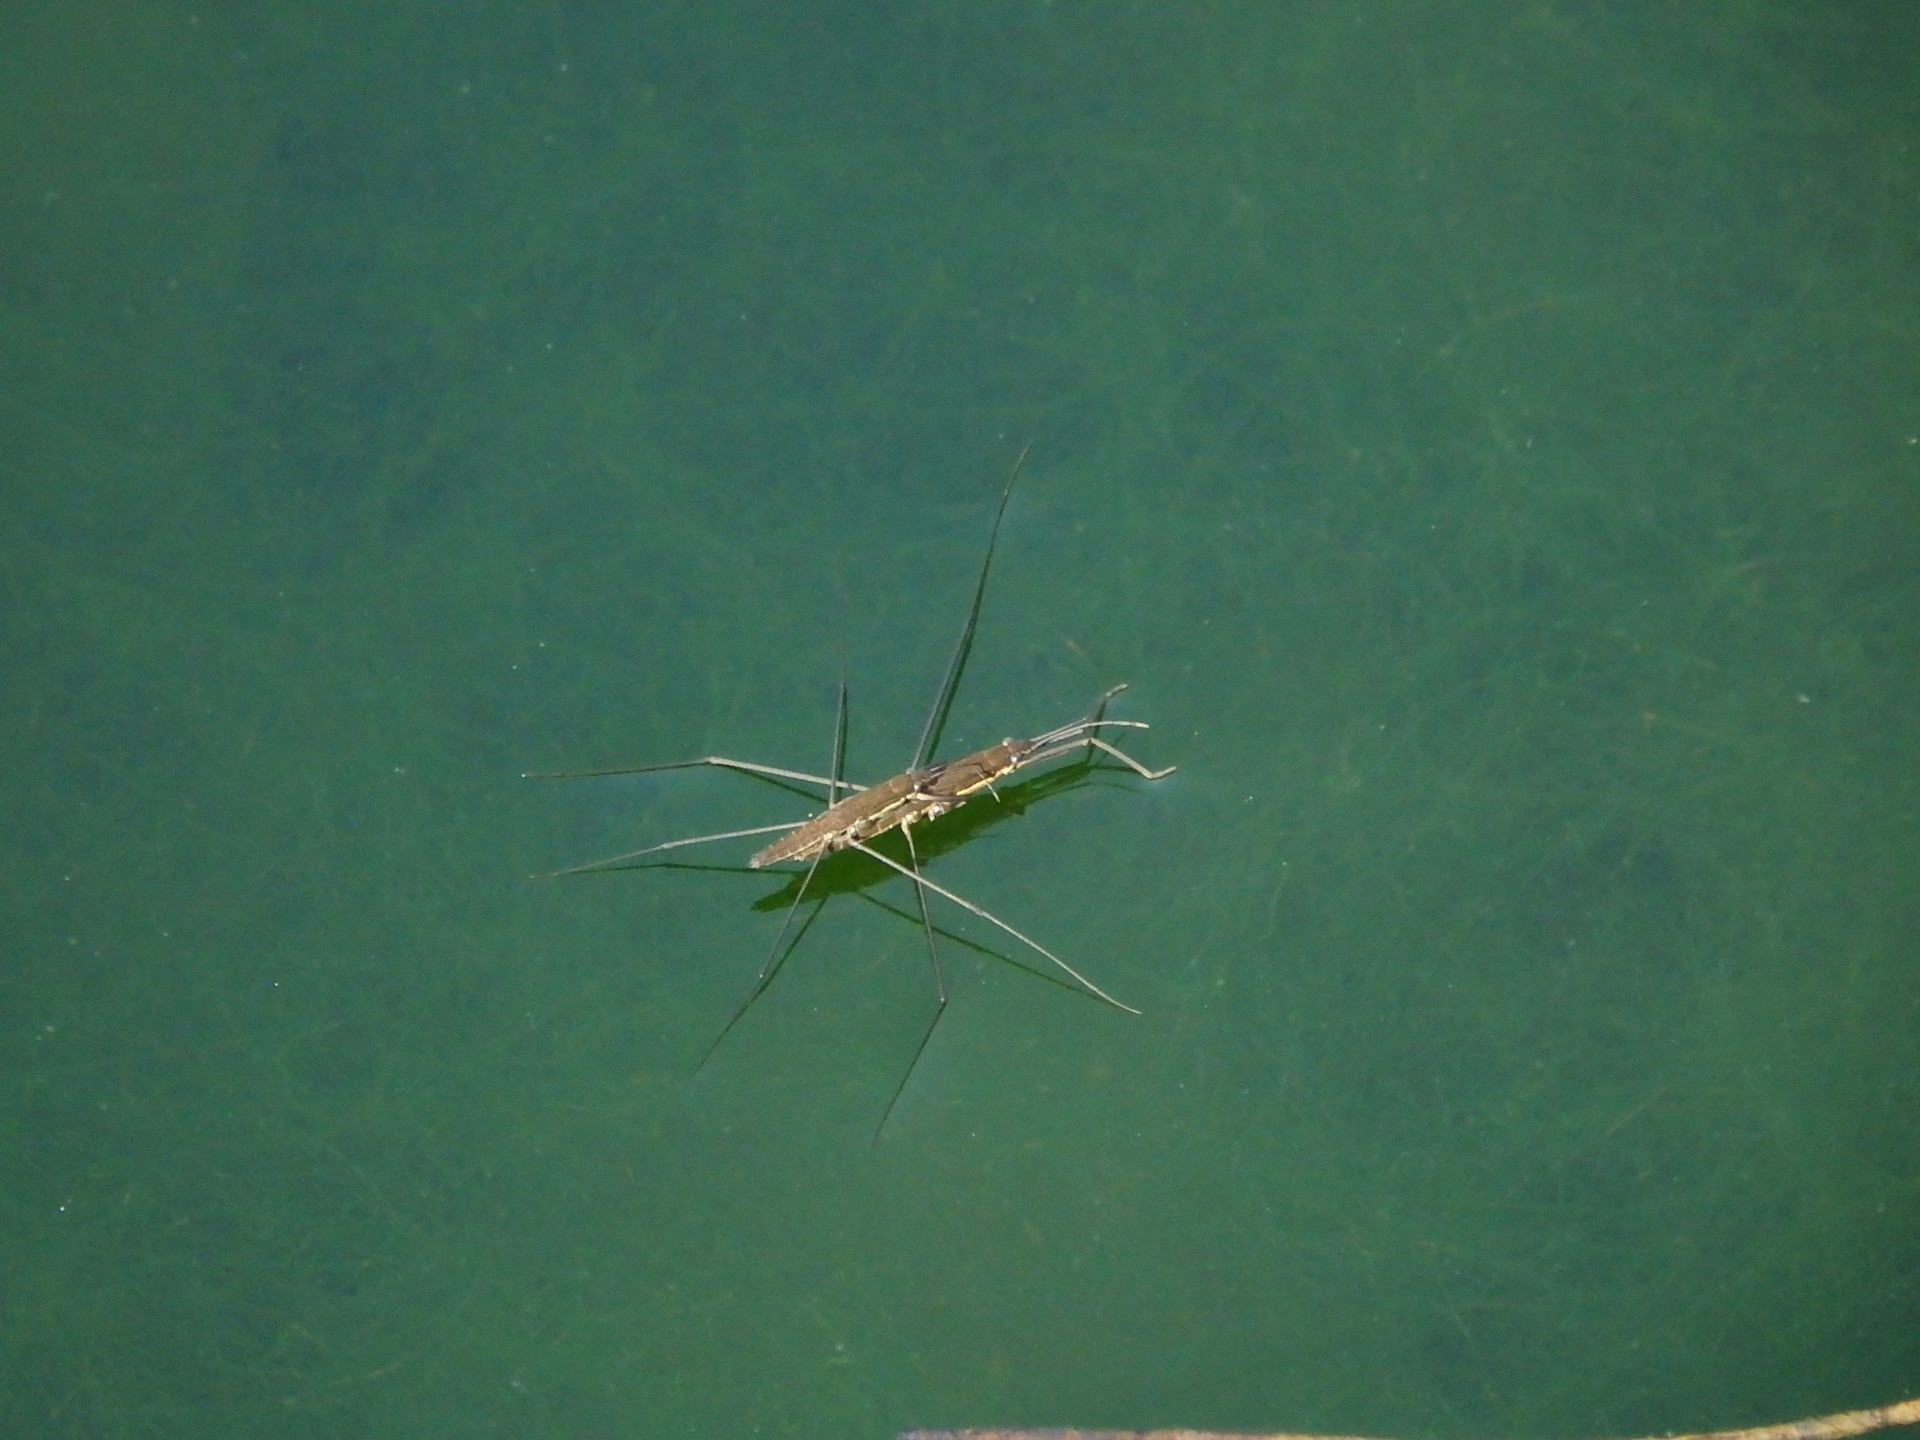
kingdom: Animalia
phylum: Arthropoda
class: Insecta
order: Hemiptera
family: Gerridae
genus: Aquarius
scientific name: Aquarius najas
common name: River skater
